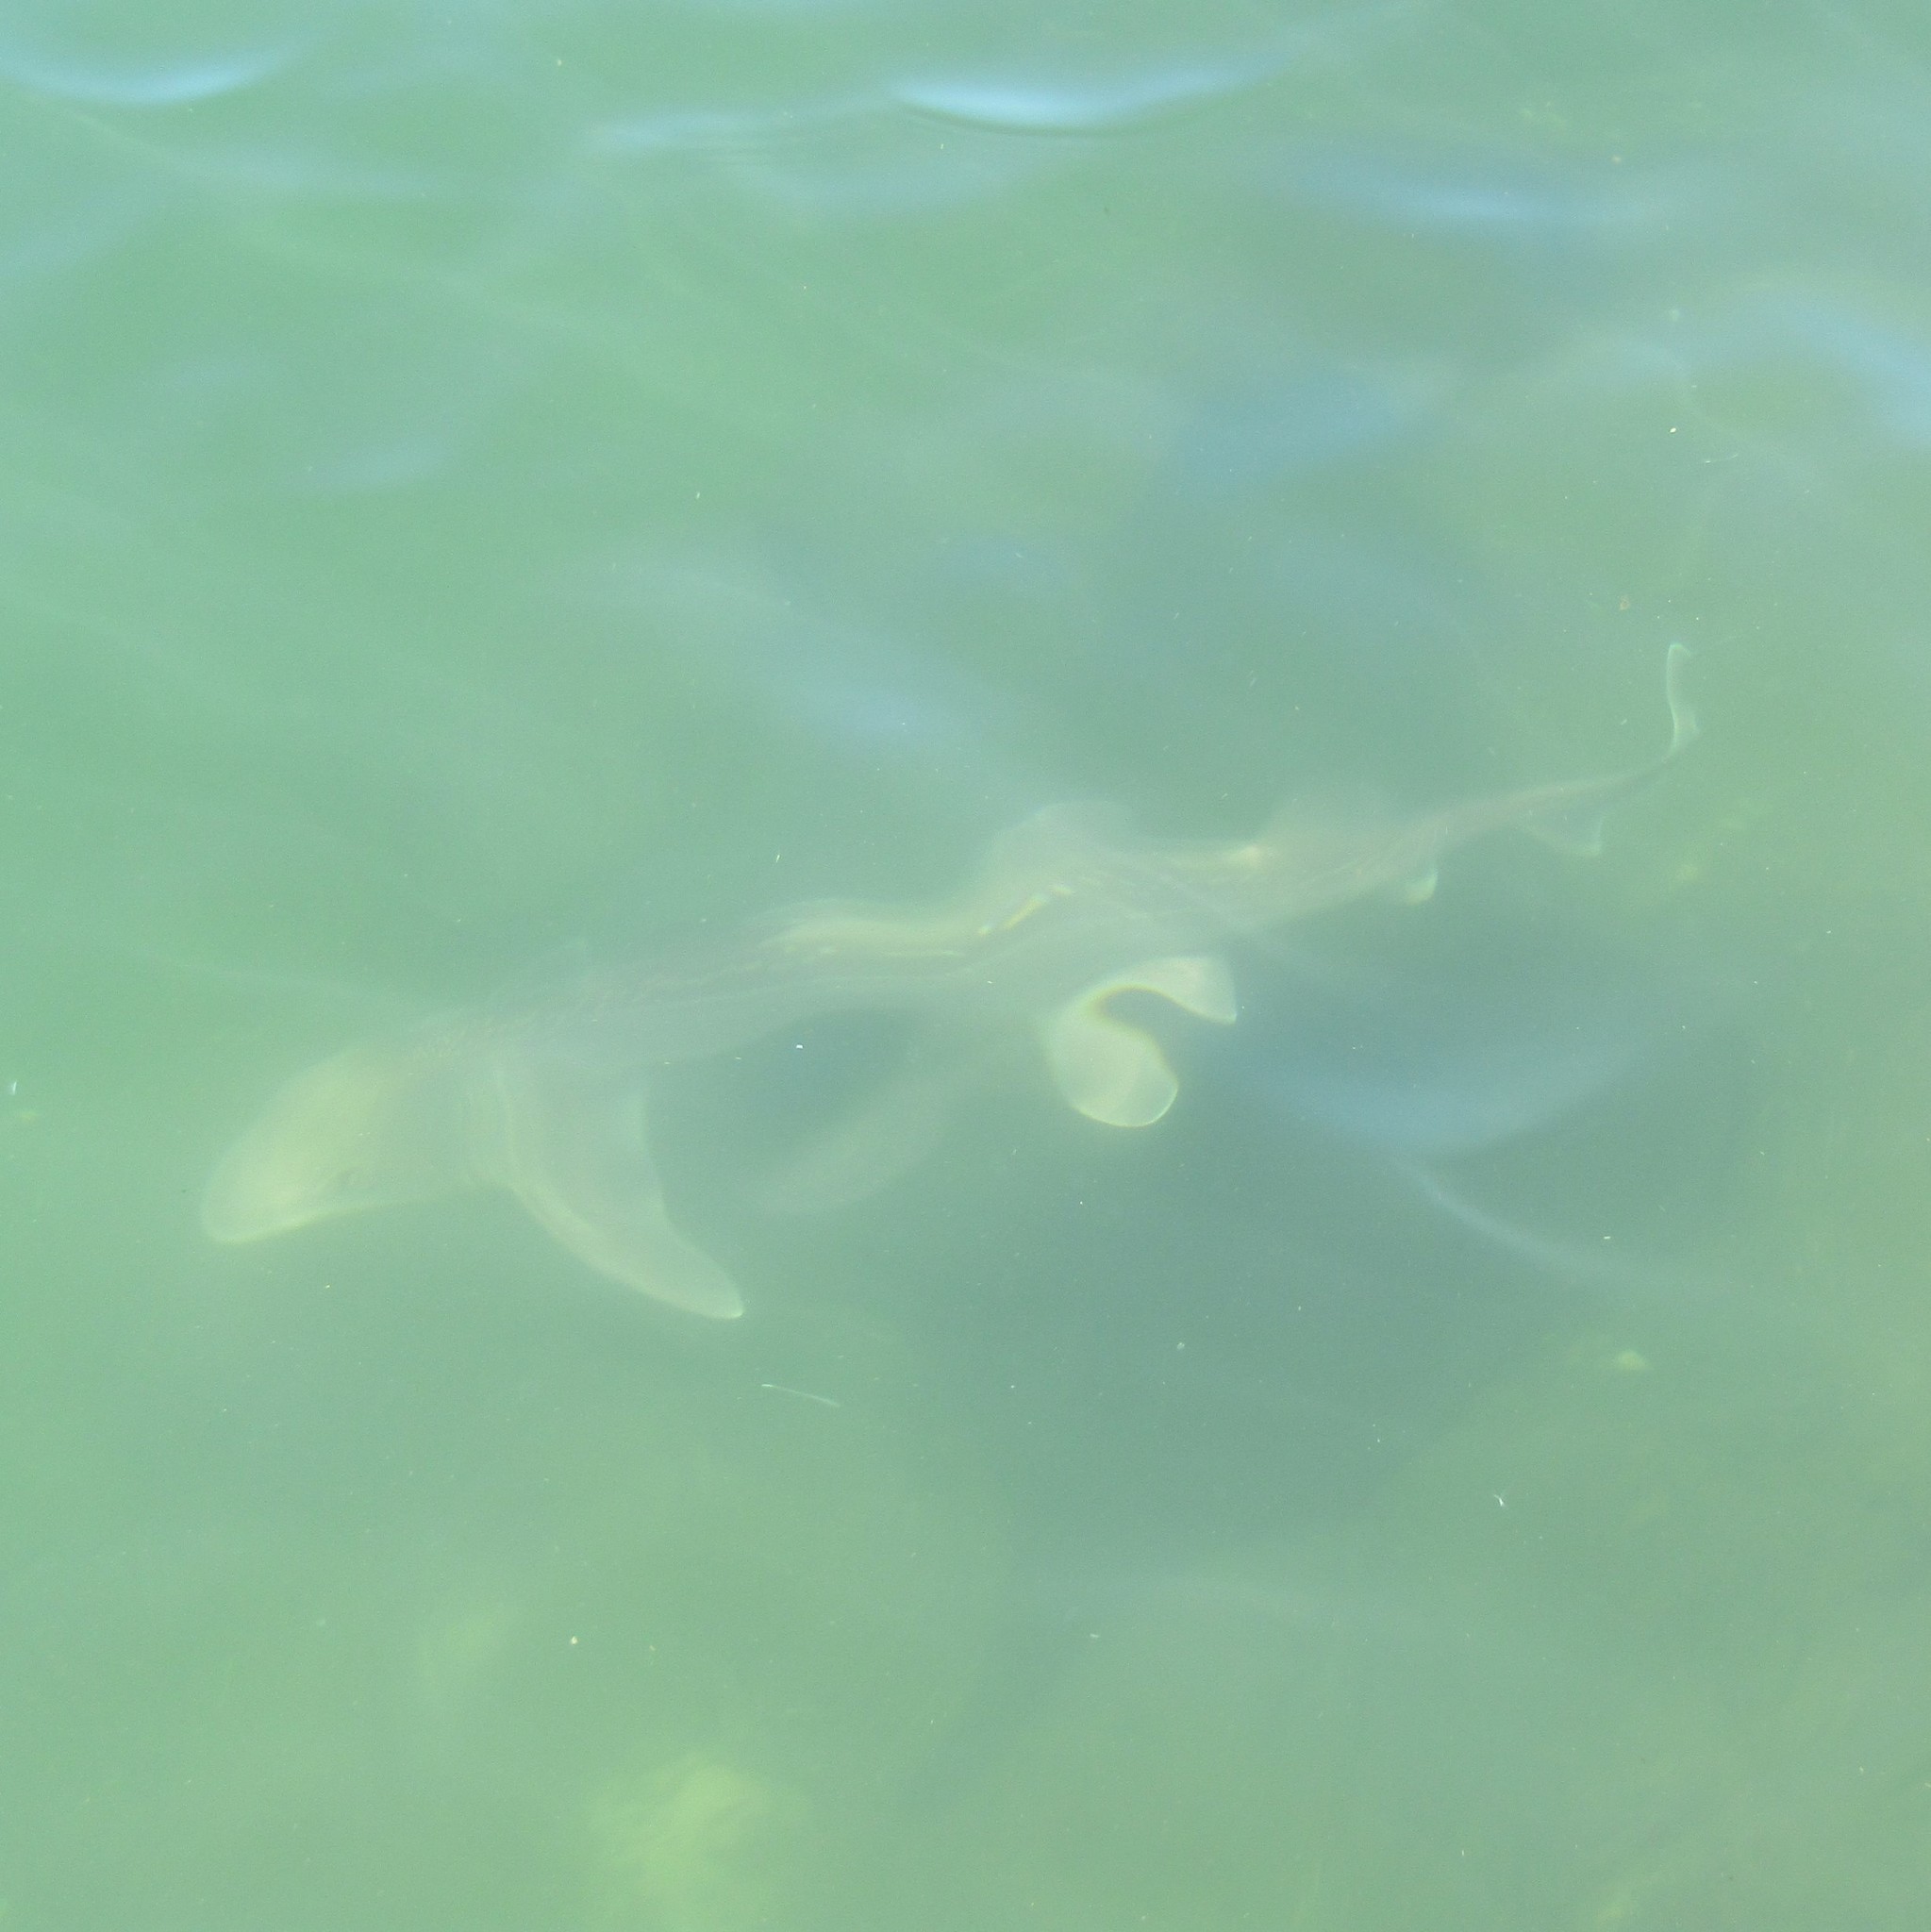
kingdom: Animalia
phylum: Chordata
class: Elasmobranchii
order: Carcharhiniformes
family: Triakidae
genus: Mustelus
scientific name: Mustelus lenticulatus
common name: Gummy shark
